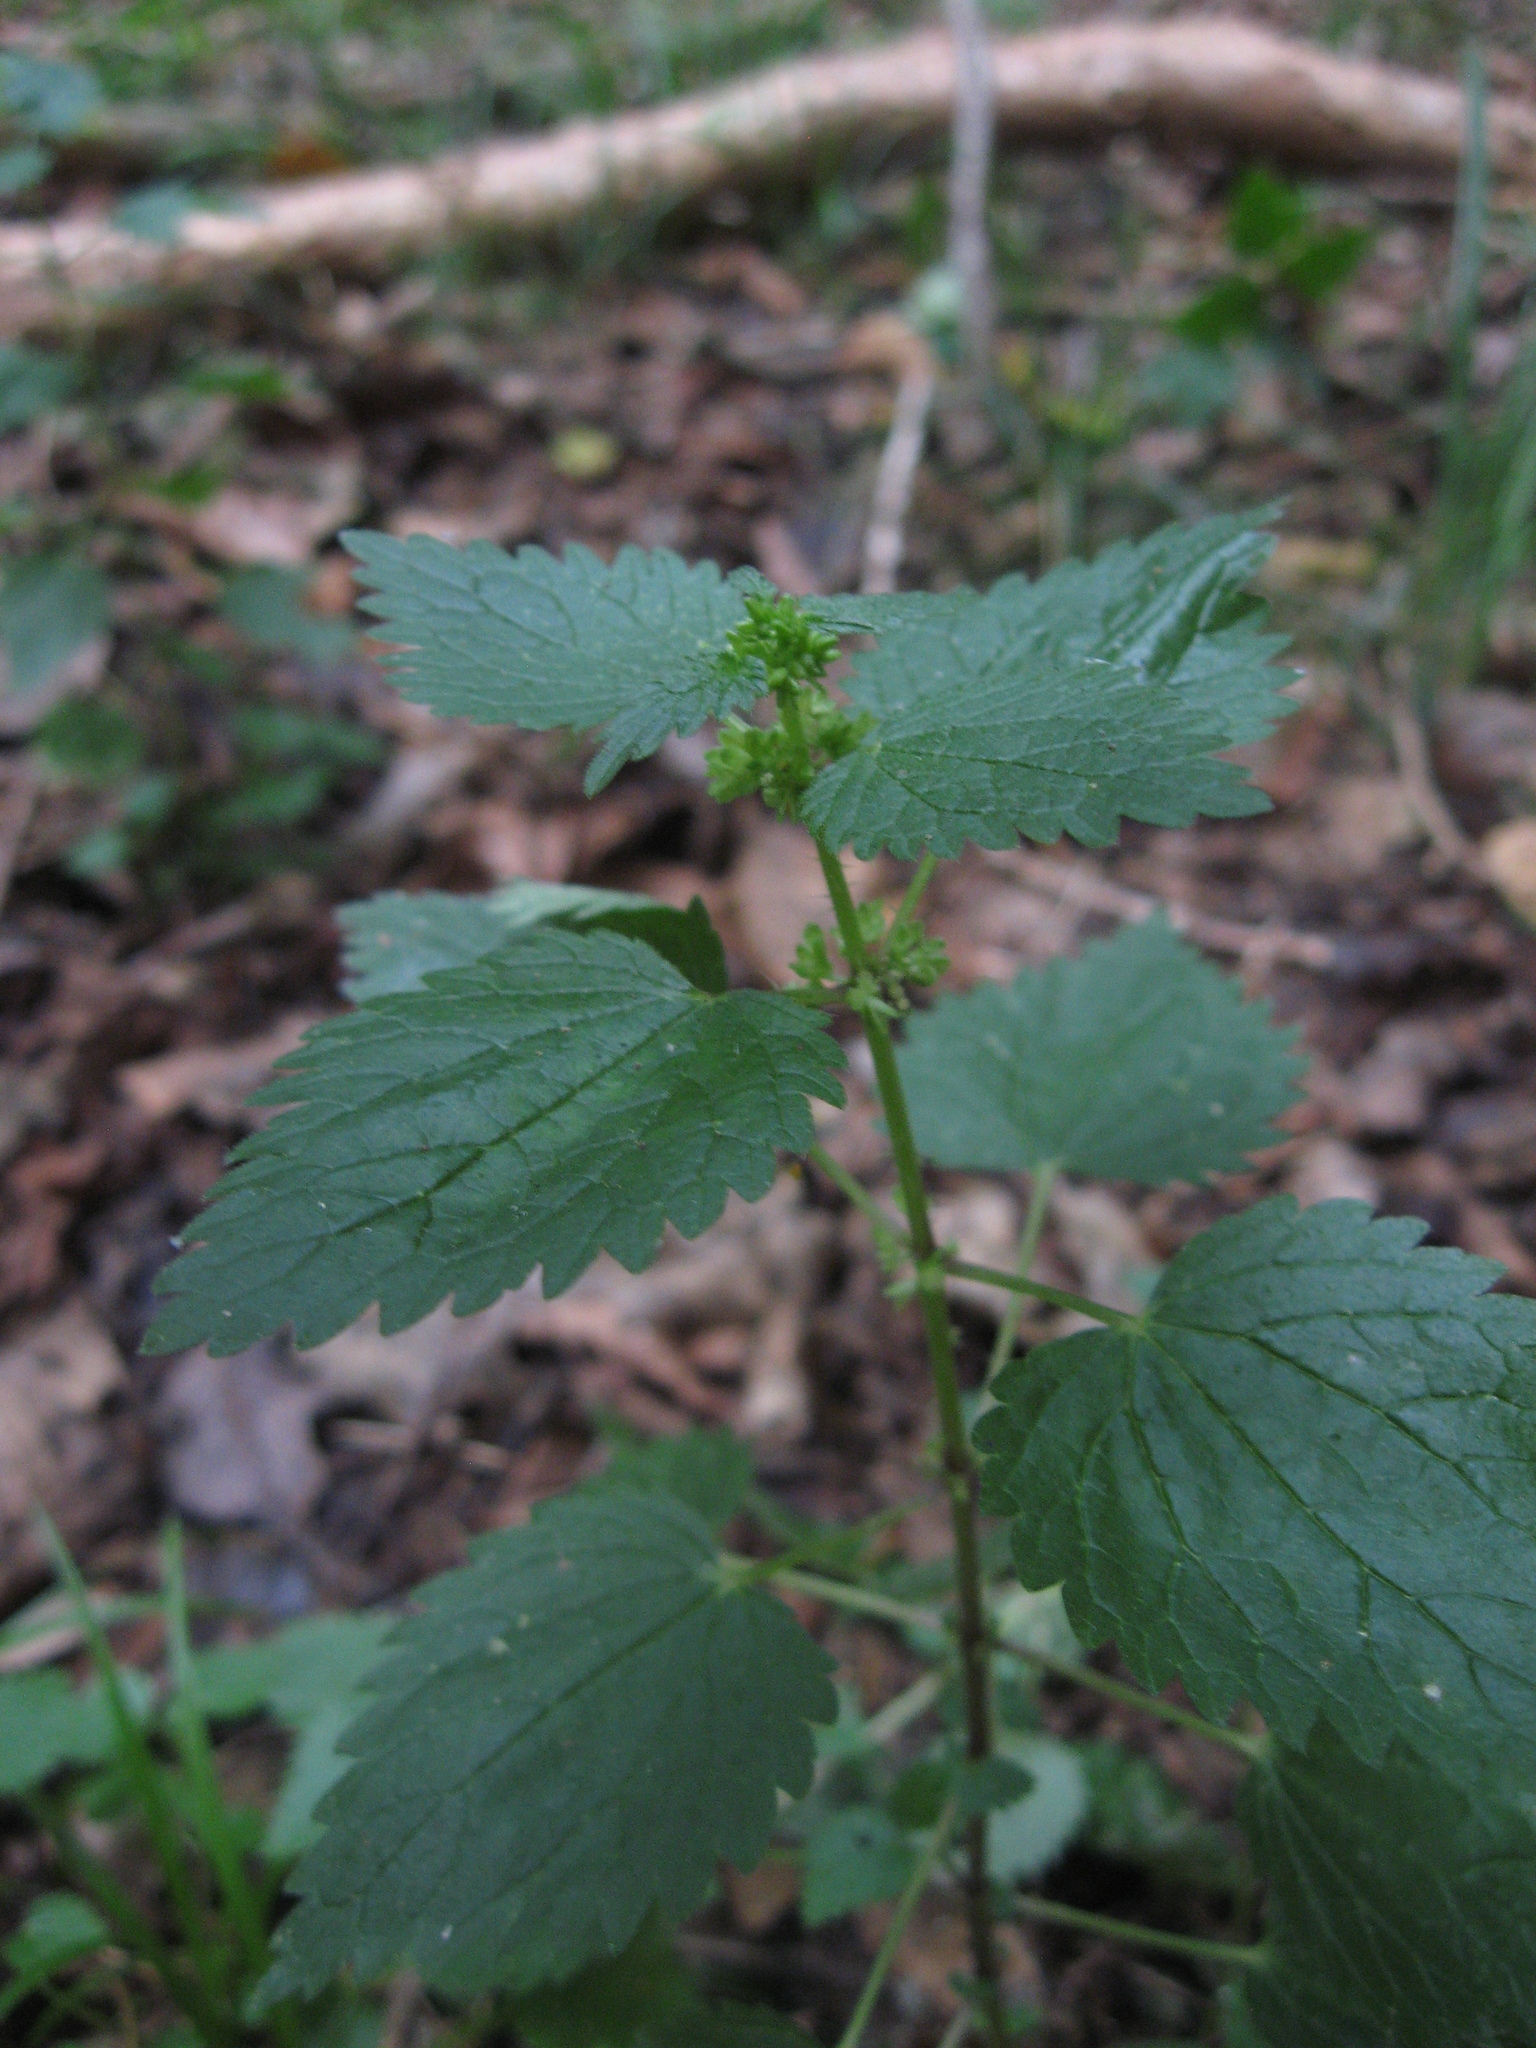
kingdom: Plantae
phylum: Tracheophyta
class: Magnoliopsida
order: Rosales
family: Urticaceae
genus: Urtica
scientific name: Urtica chamaedryoides
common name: Heart-leaf nettle
